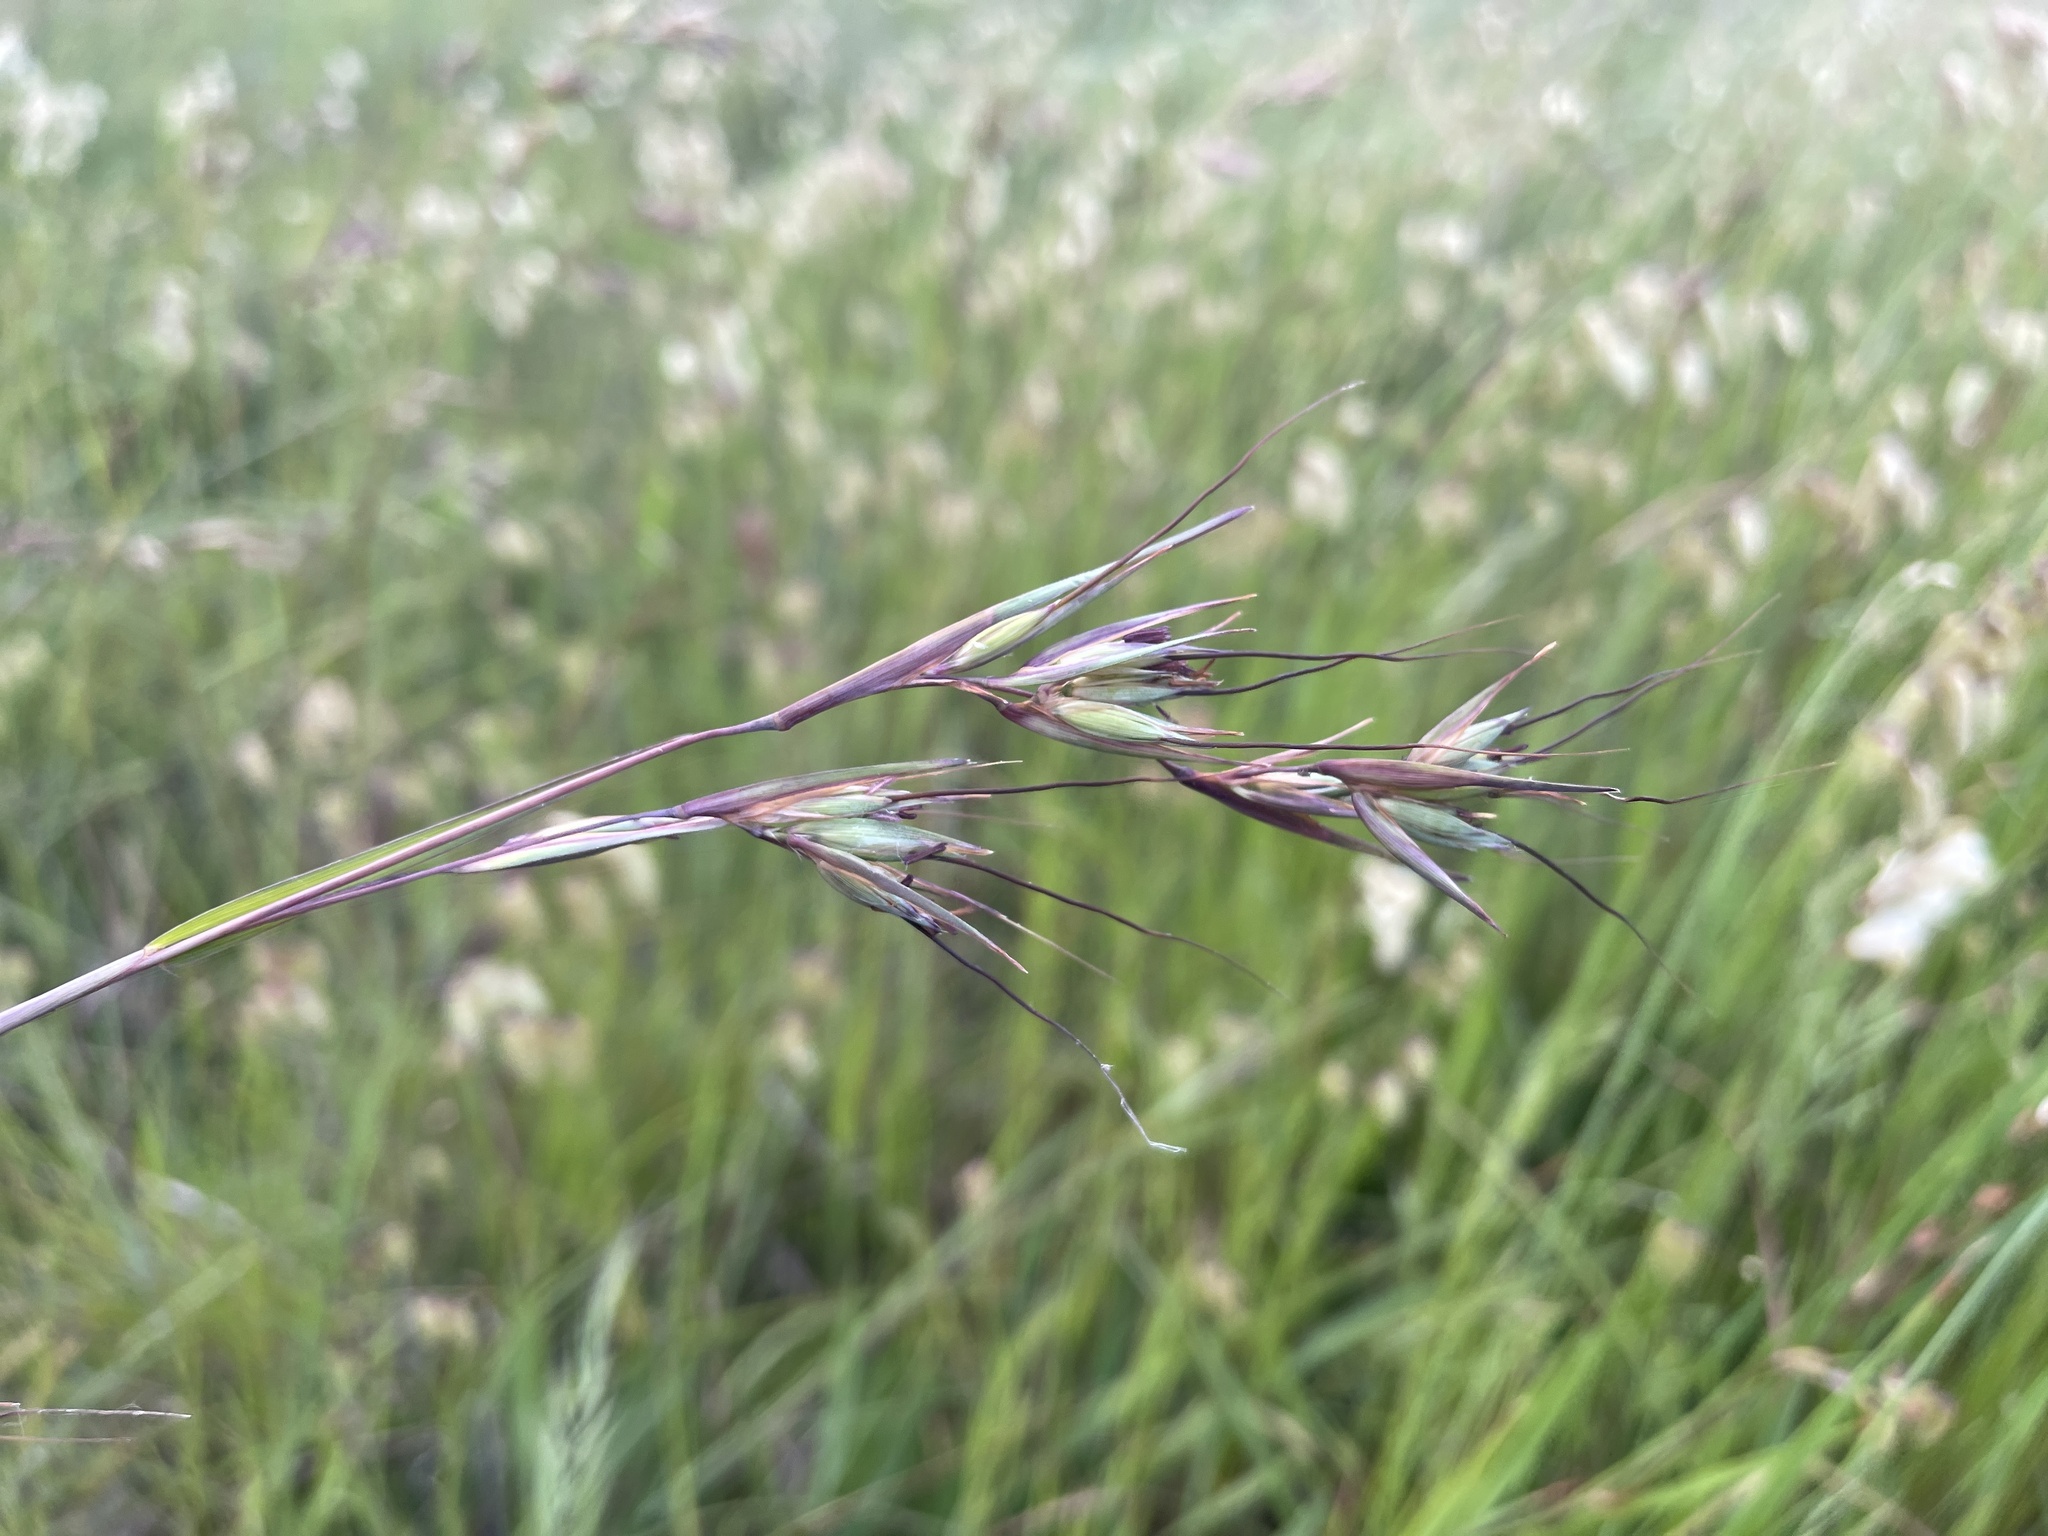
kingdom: Plantae
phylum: Tracheophyta
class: Liliopsida
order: Poales
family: Poaceae
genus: Themeda
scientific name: Themeda triandra
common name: Kangaroo grass
